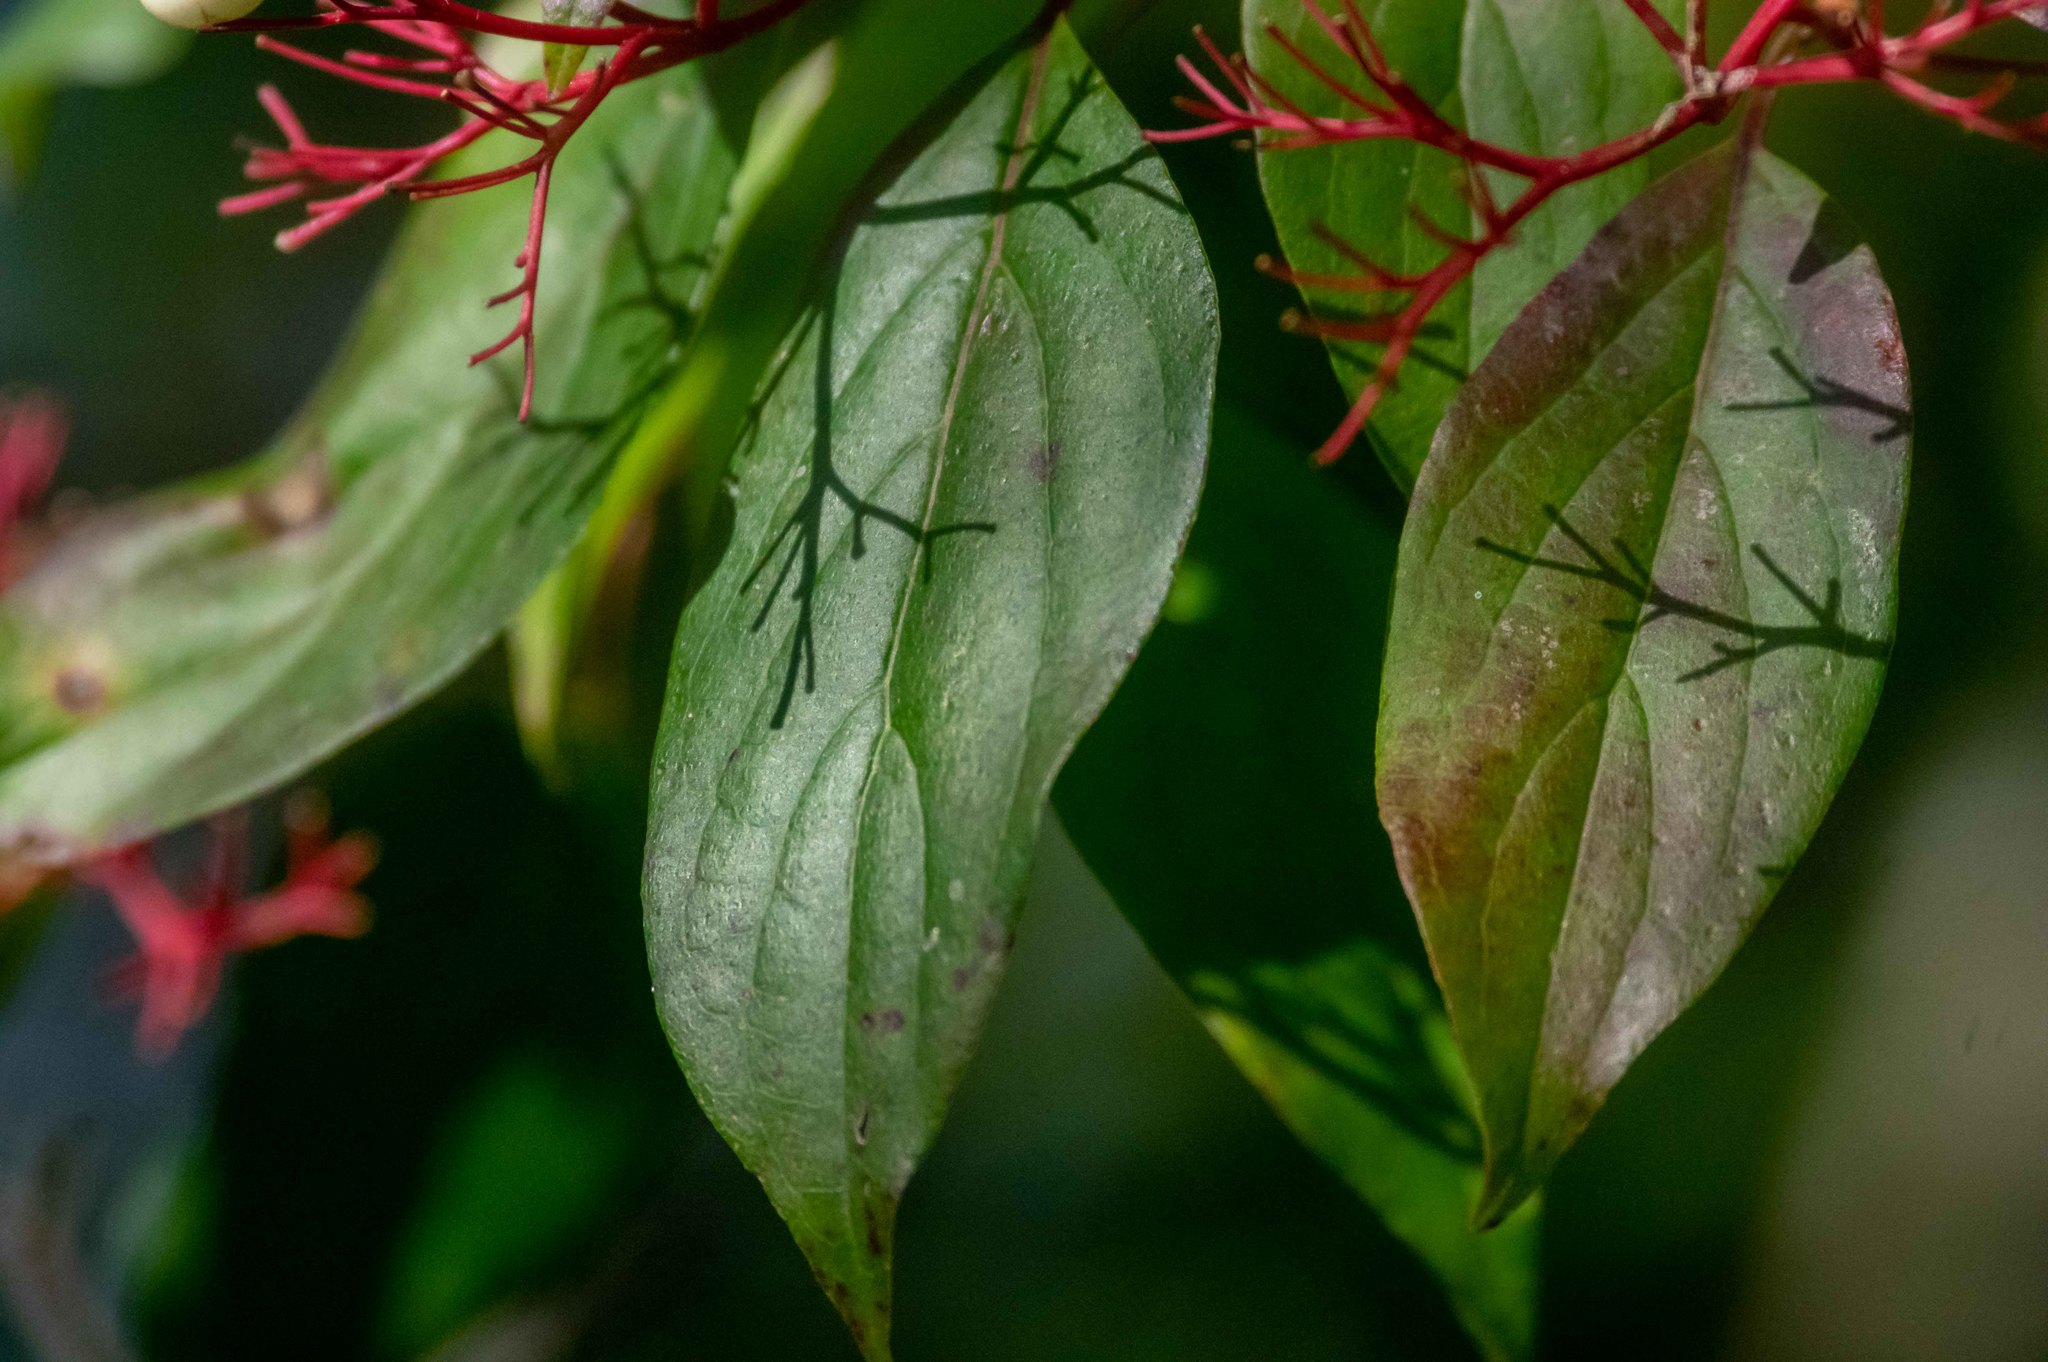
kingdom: Plantae
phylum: Tracheophyta
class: Magnoliopsida
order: Cornales
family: Cornaceae
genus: Cornus
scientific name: Cornus racemosa
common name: Panicled dogwood
